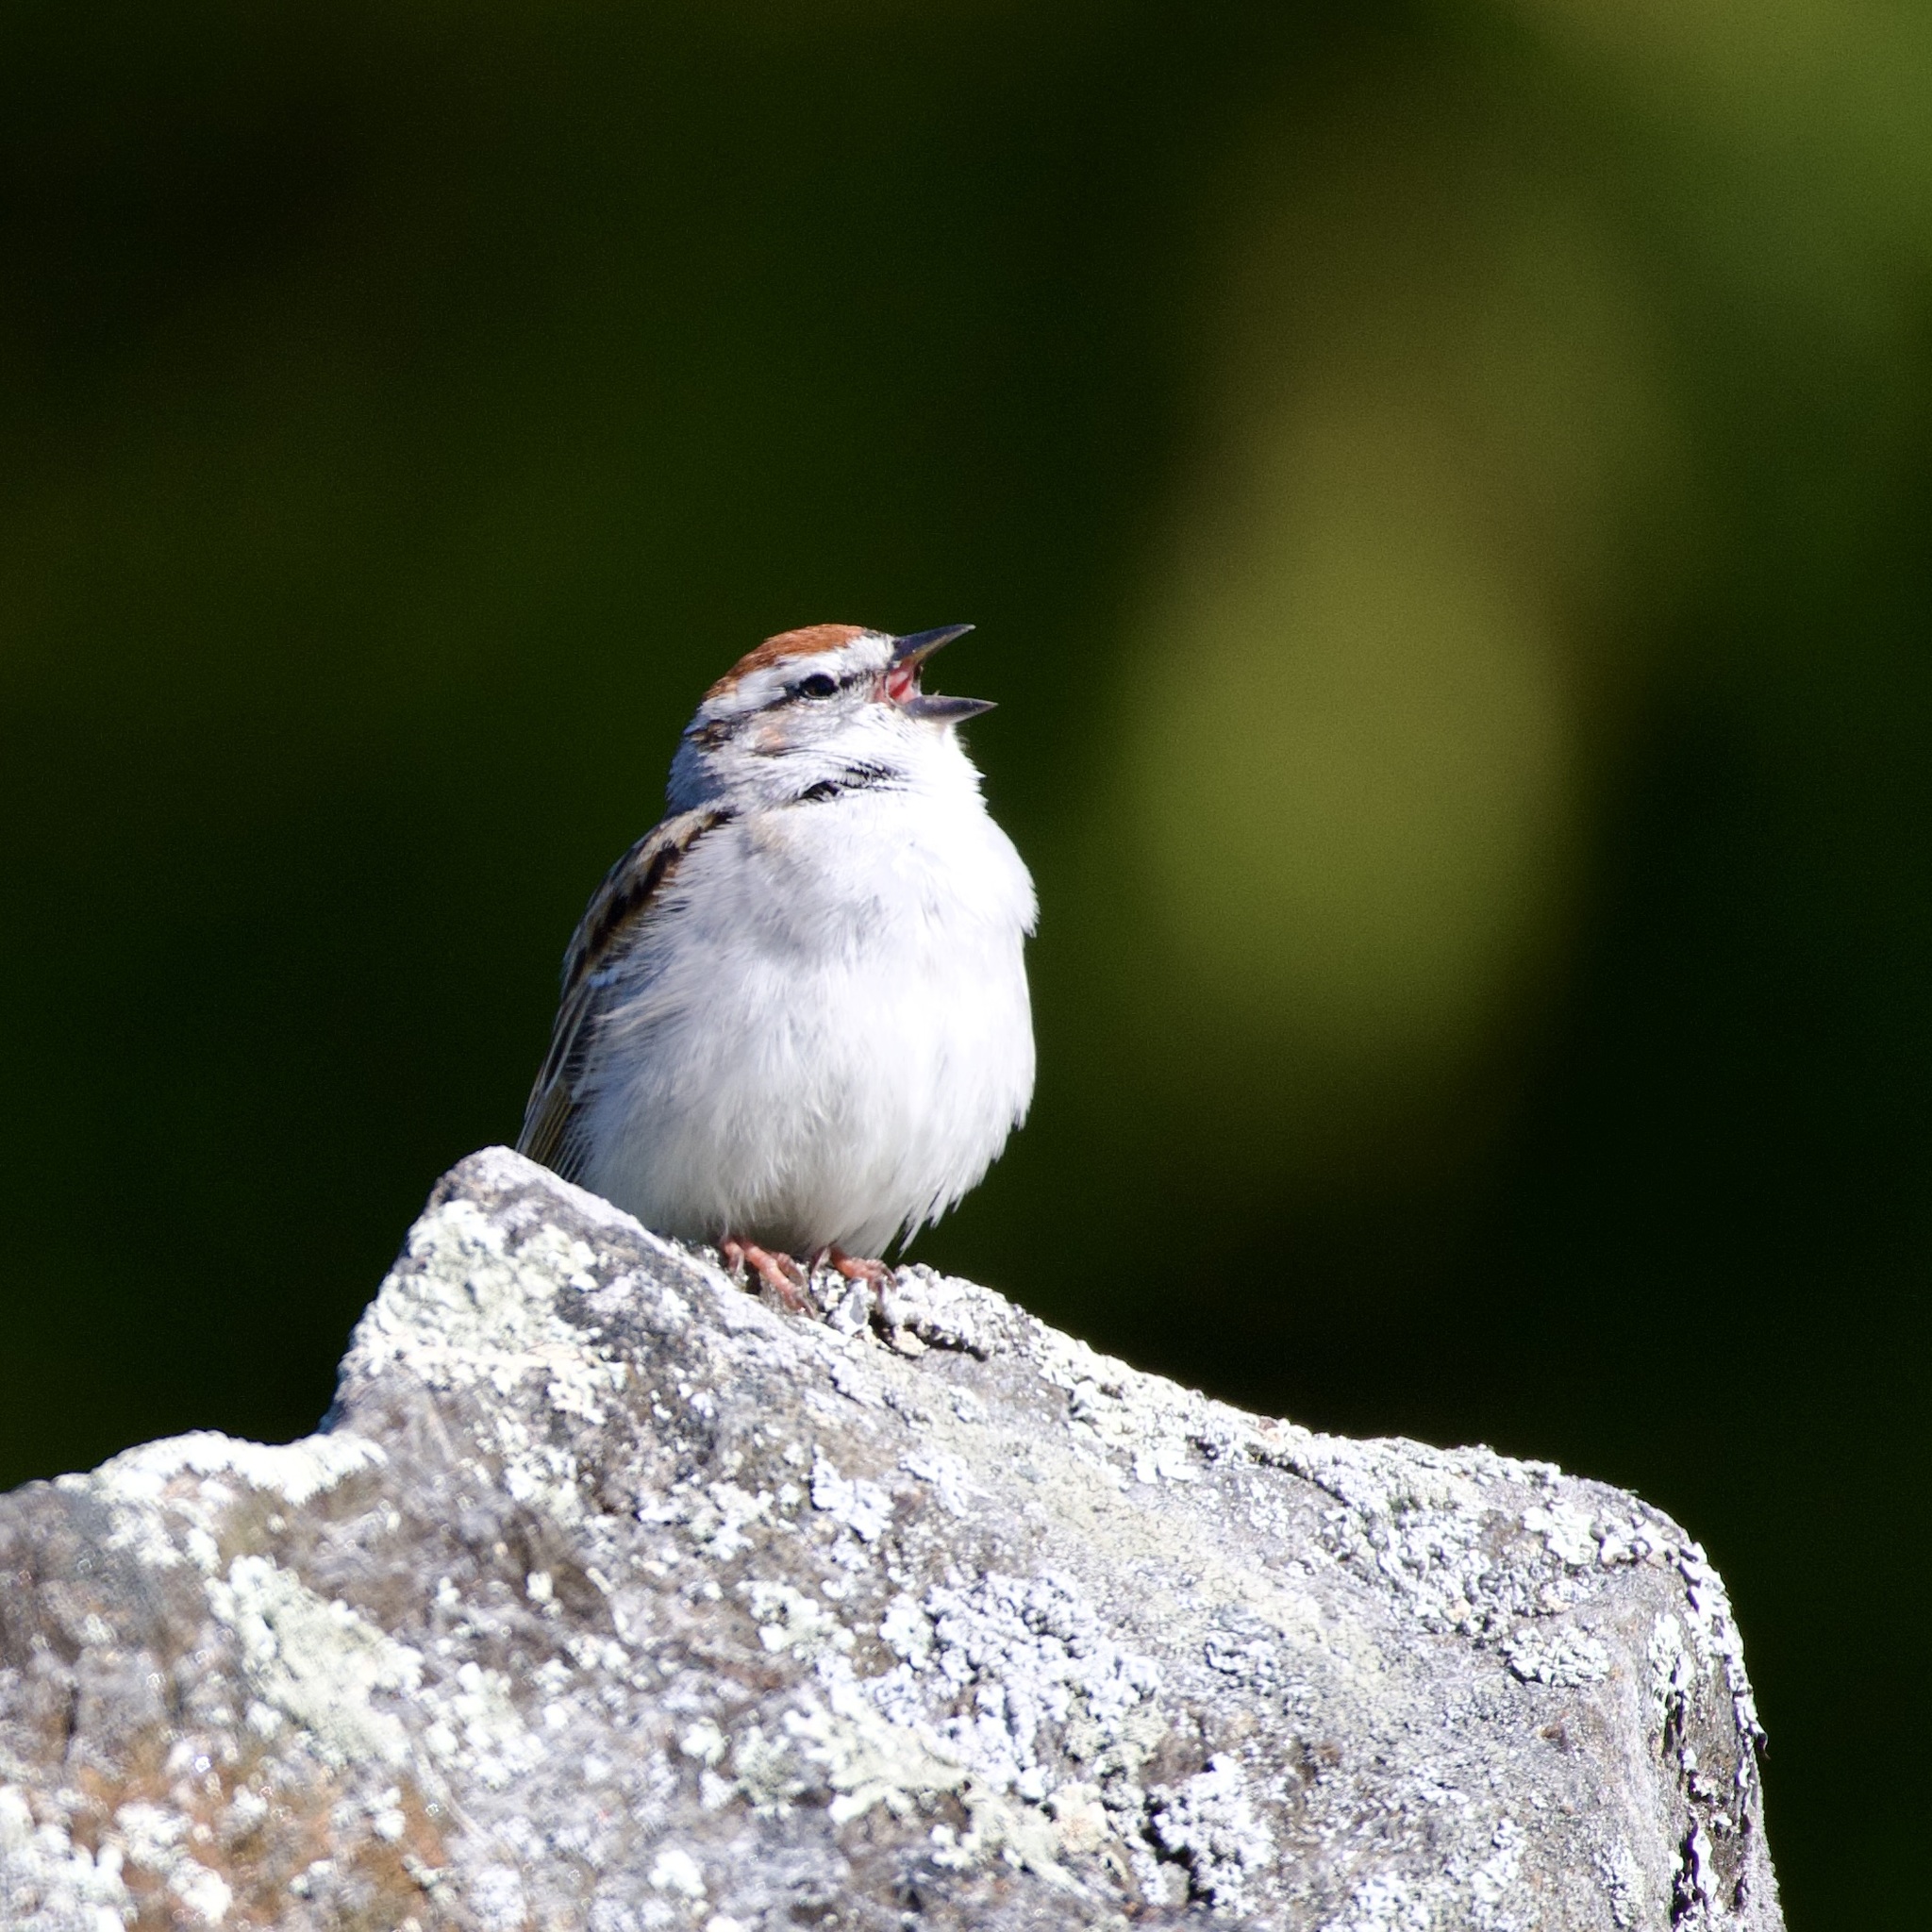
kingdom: Animalia
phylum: Chordata
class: Aves
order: Passeriformes
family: Passerellidae
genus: Spizella
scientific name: Spizella passerina
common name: Chipping sparrow
